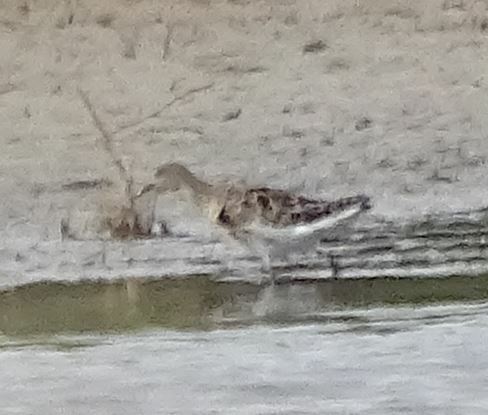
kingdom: Animalia
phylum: Chordata
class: Aves
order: Charadriiformes
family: Scolopacidae
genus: Calidris
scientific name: Calidris pugnax
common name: Ruff
